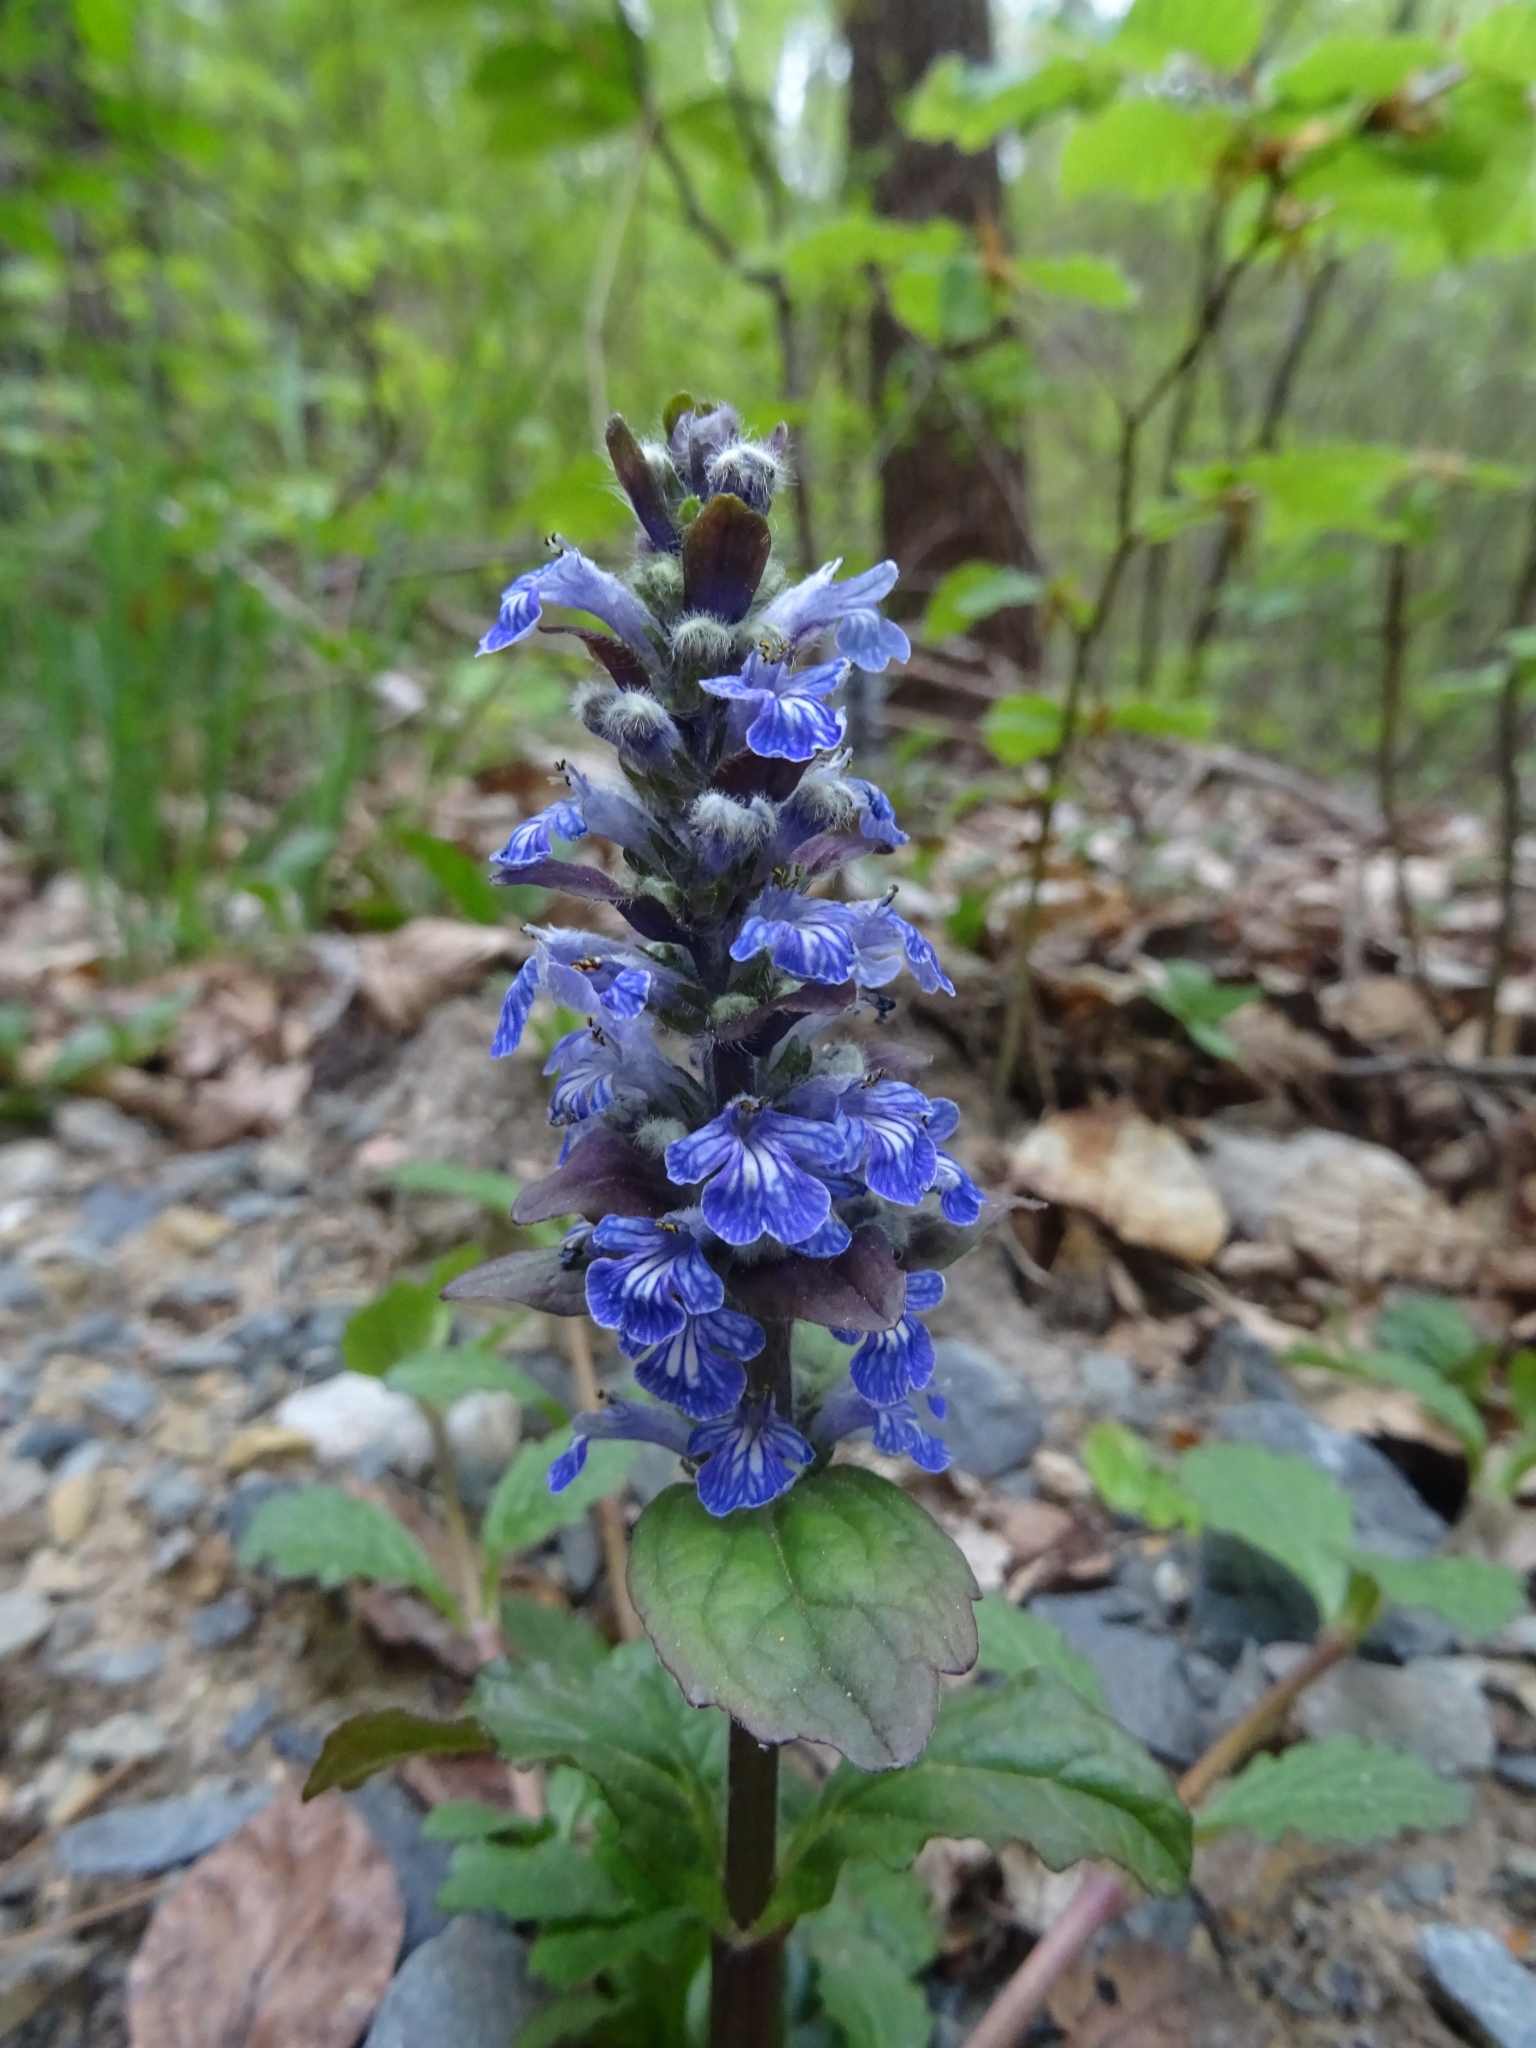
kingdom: Plantae
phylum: Tracheophyta
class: Magnoliopsida
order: Lamiales
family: Lamiaceae
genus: Ajuga
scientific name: Ajuga reptans
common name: Bugle
